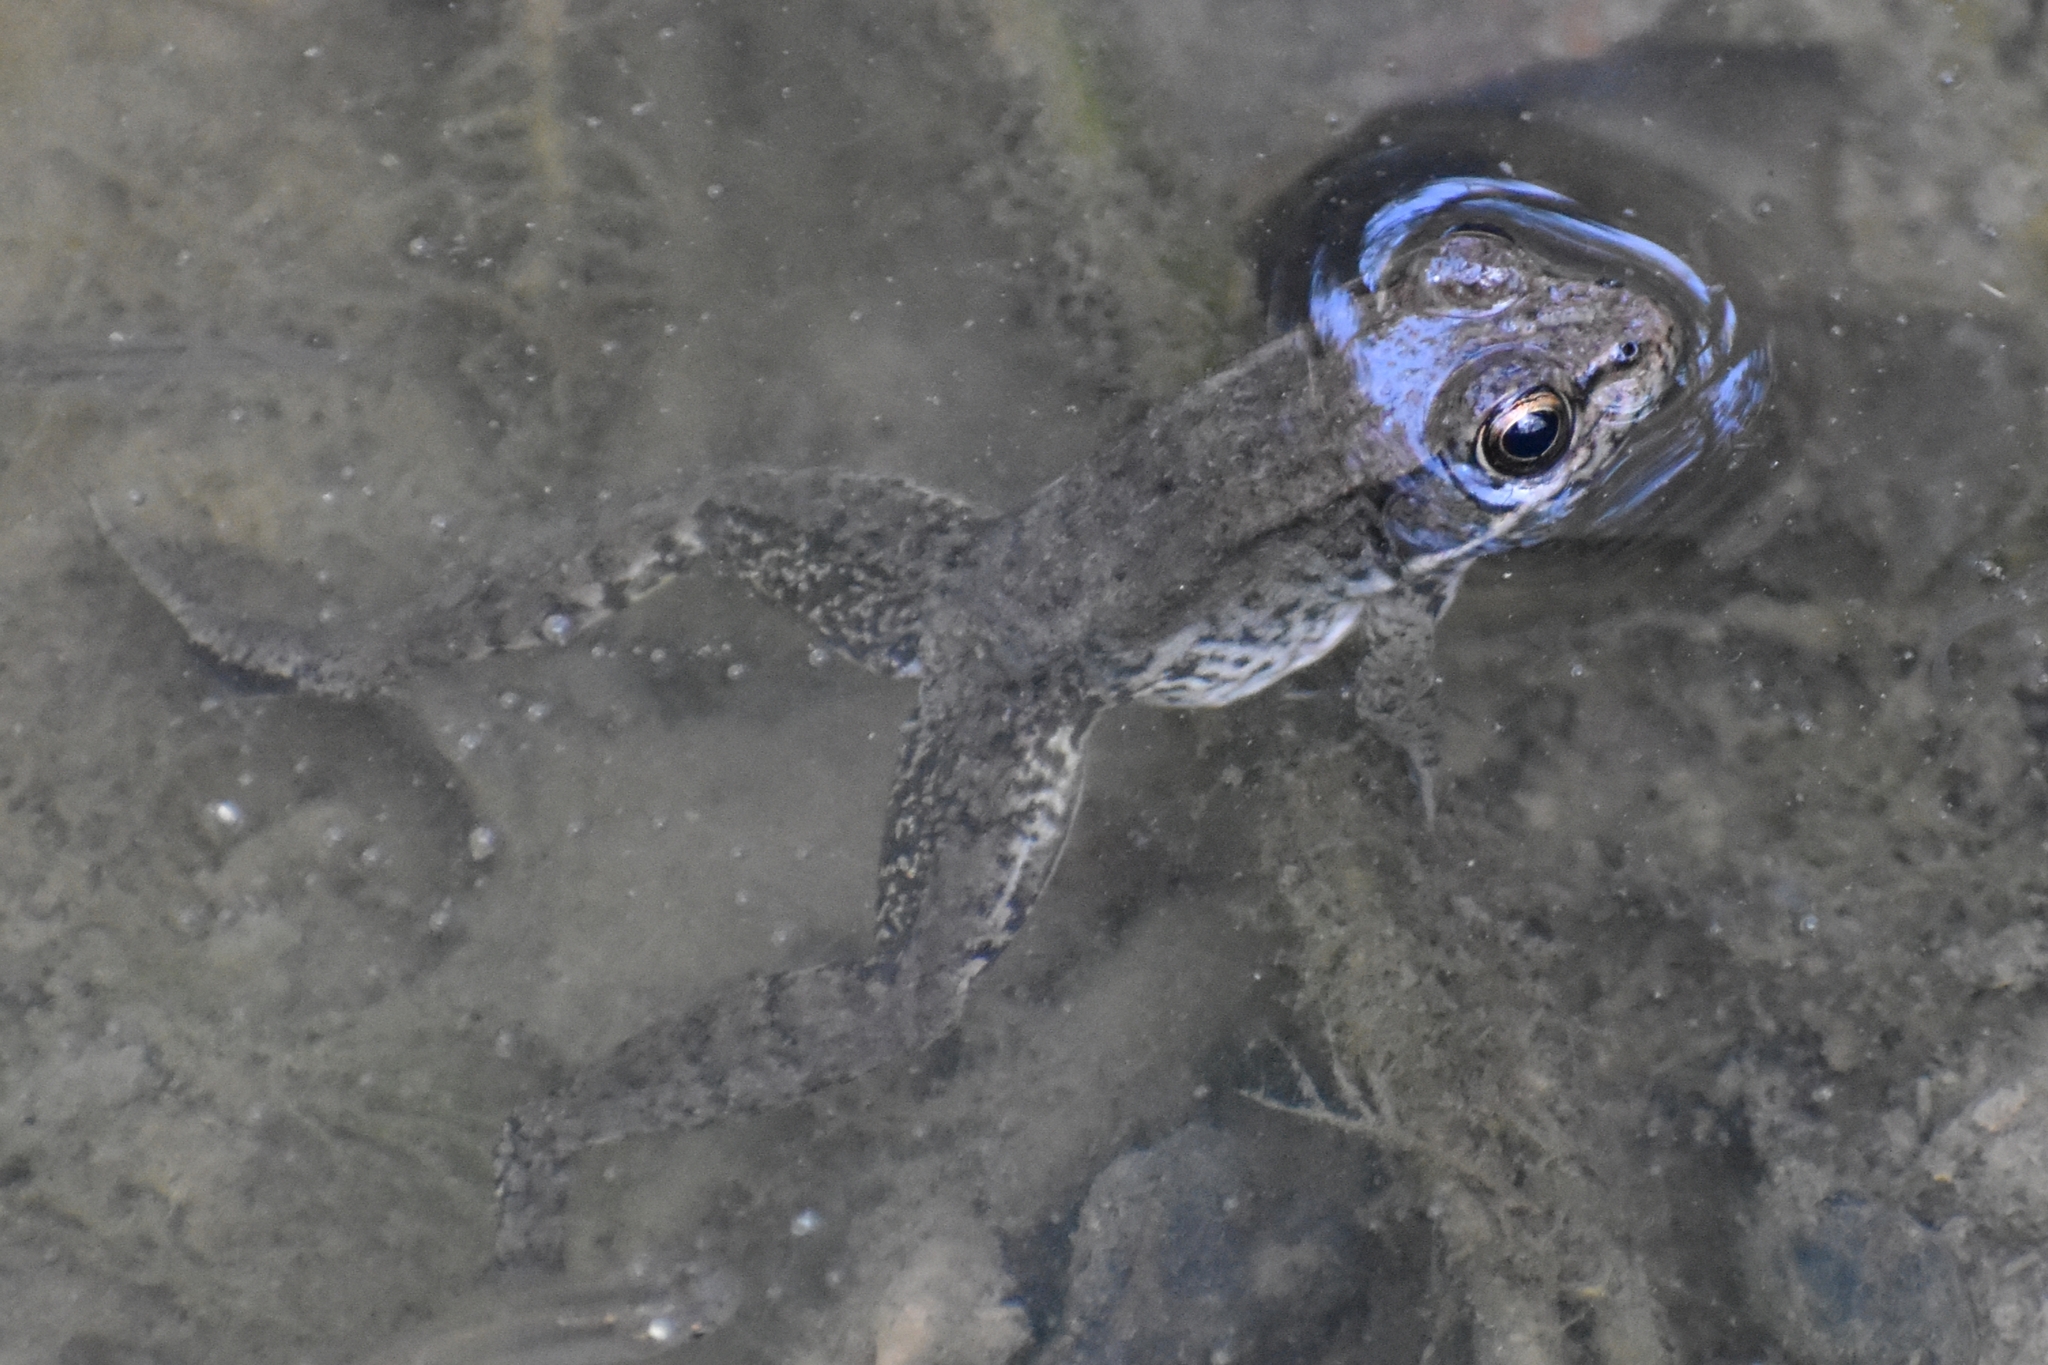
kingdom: Animalia
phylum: Chordata
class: Amphibia
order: Anura
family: Ranidae
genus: Lithobates
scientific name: Lithobates clamitans
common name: Green frog
